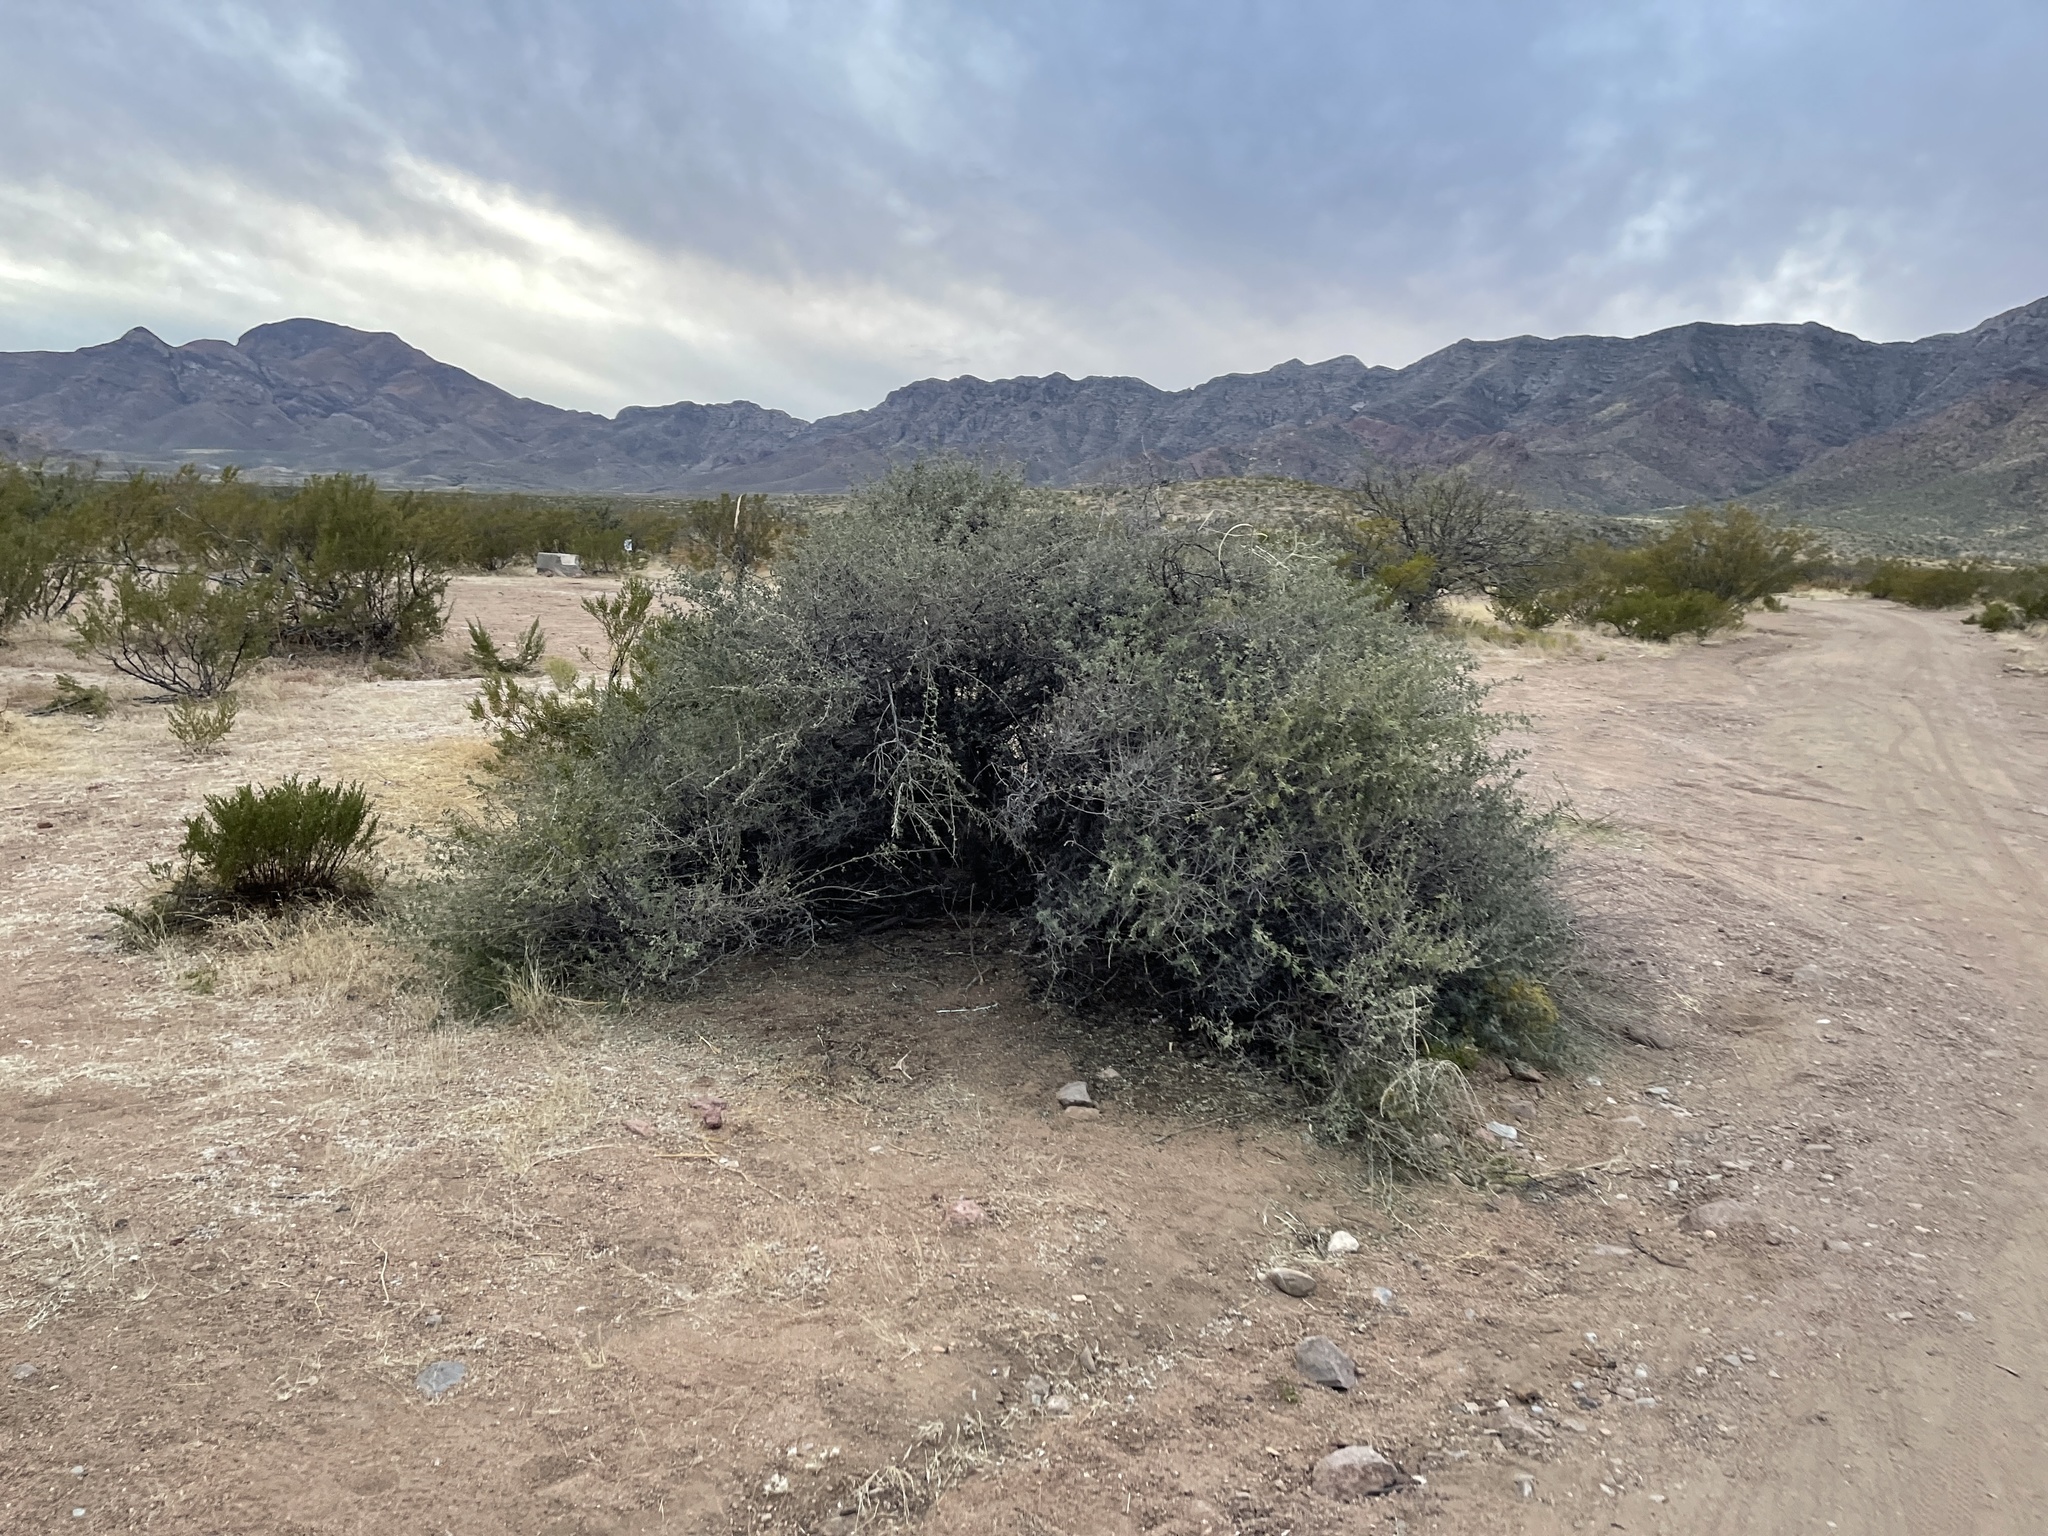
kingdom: Plantae
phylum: Tracheophyta
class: Magnoliopsida
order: Sapindales
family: Anacardiaceae
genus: Rhus
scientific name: Rhus microphylla
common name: Desert sumac
